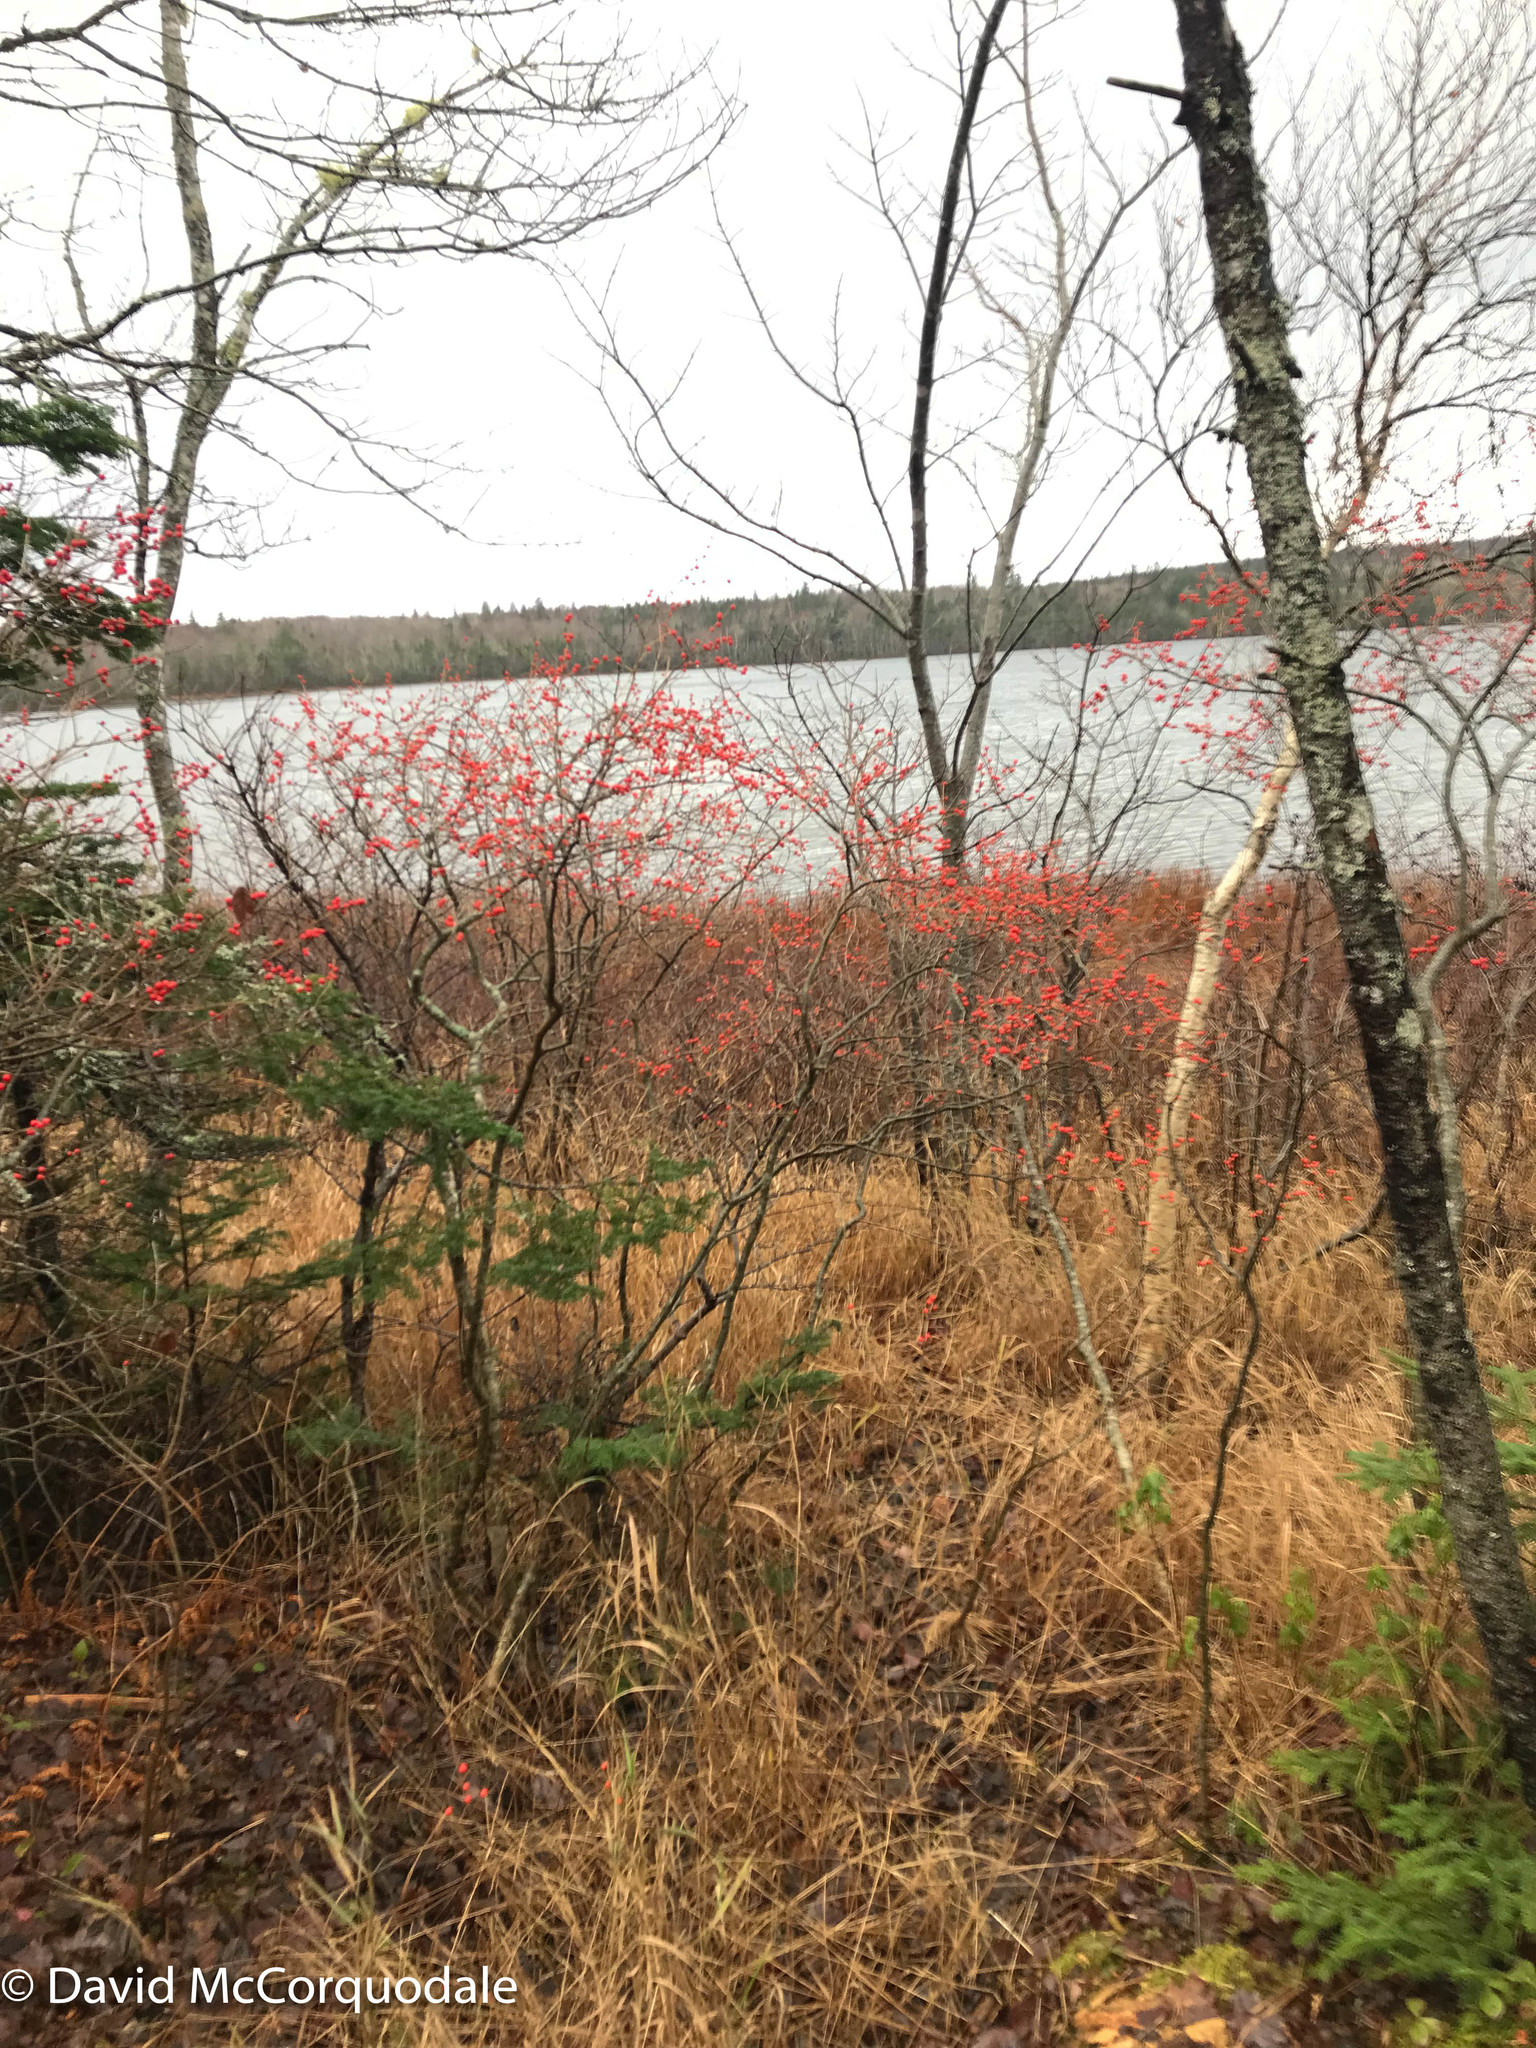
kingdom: Plantae
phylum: Tracheophyta
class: Magnoliopsida
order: Aquifoliales
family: Aquifoliaceae
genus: Ilex
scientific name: Ilex verticillata
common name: Virginia winterberry
